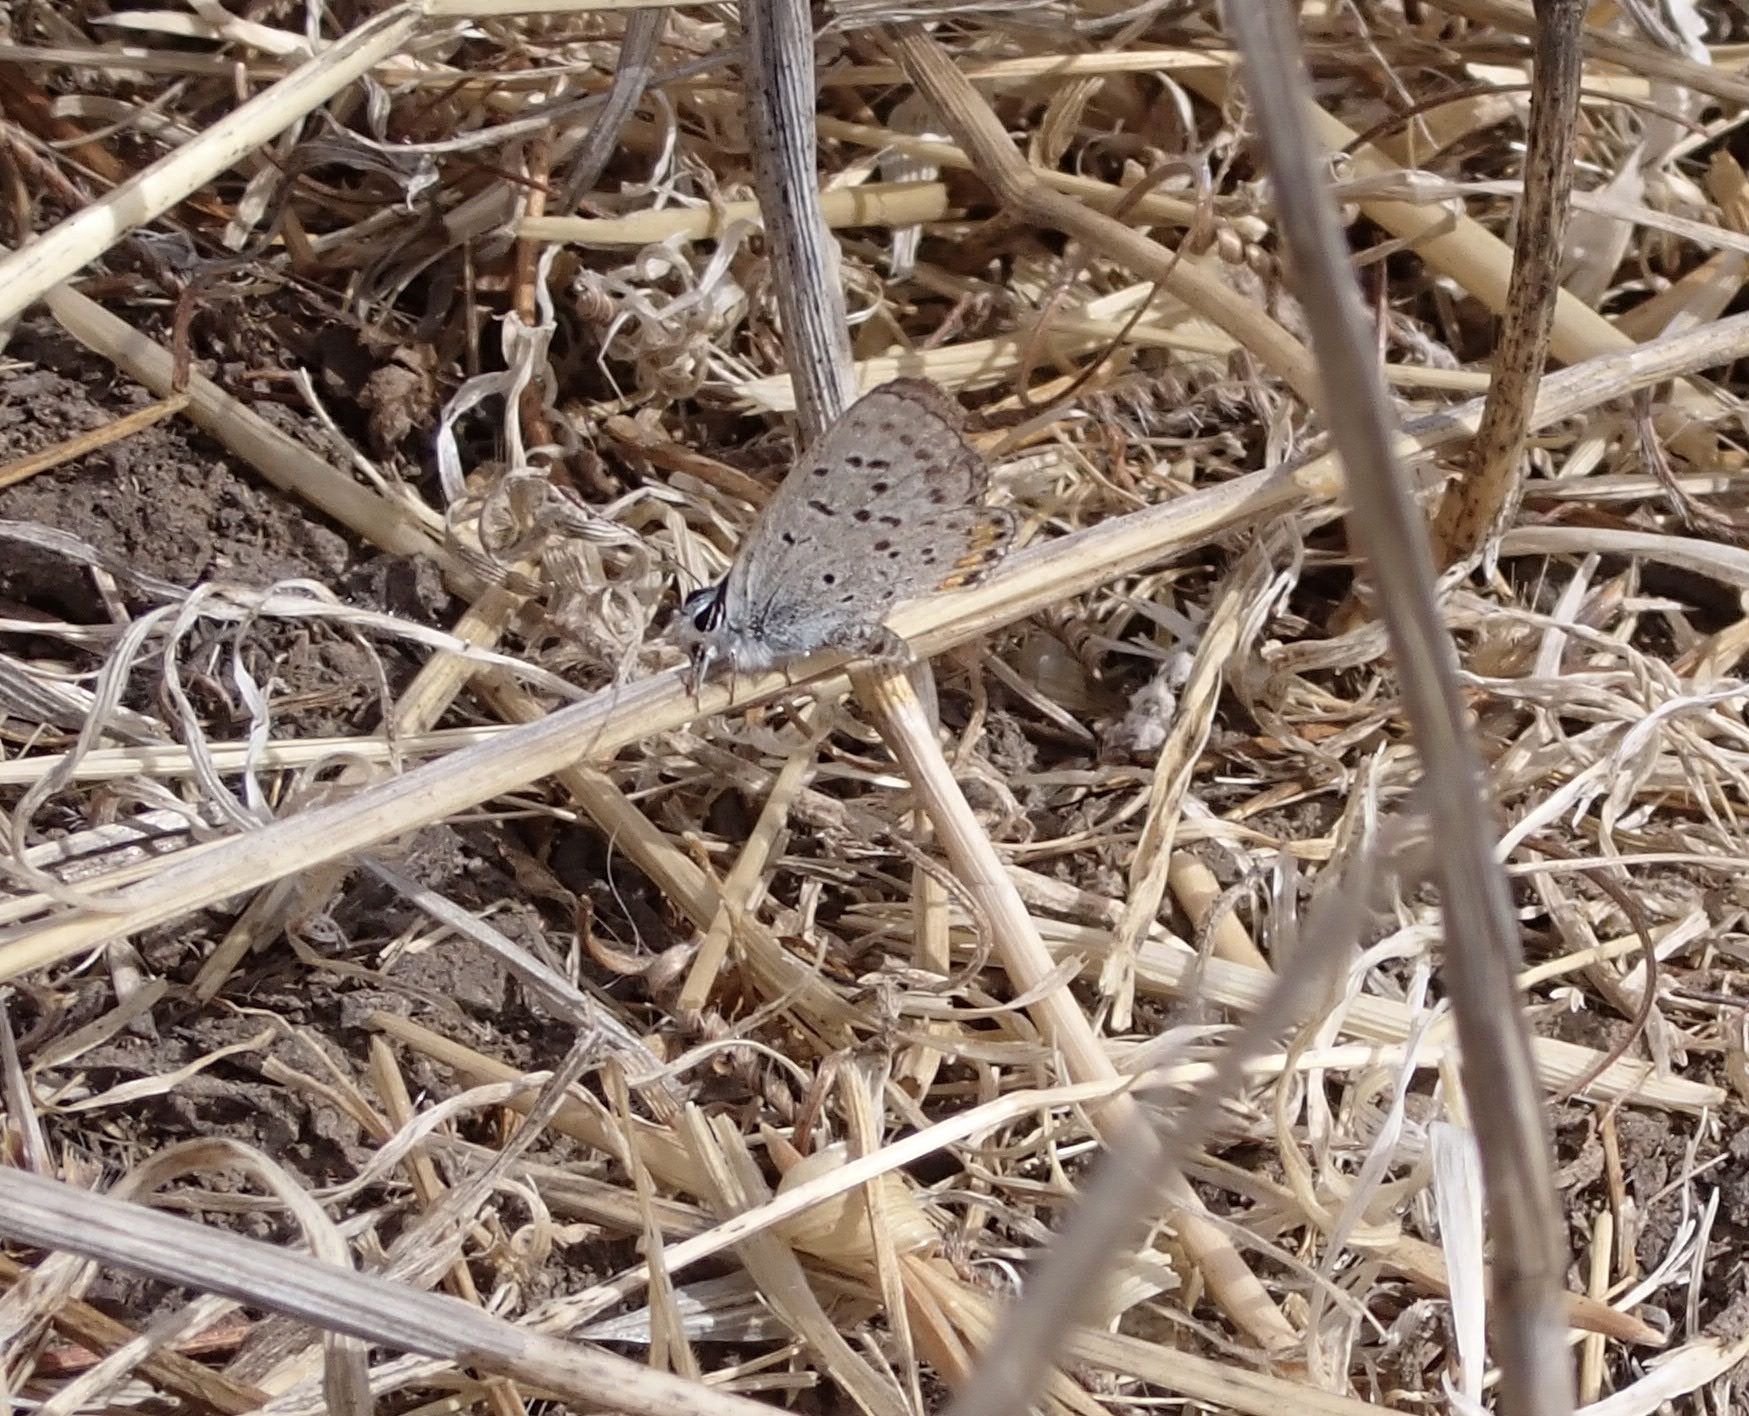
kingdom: Animalia
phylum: Arthropoda
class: Insecta
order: Lepidoptera
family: Lycaenidae
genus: Icaricia
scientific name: Icaricia acmon
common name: Acmon blue
